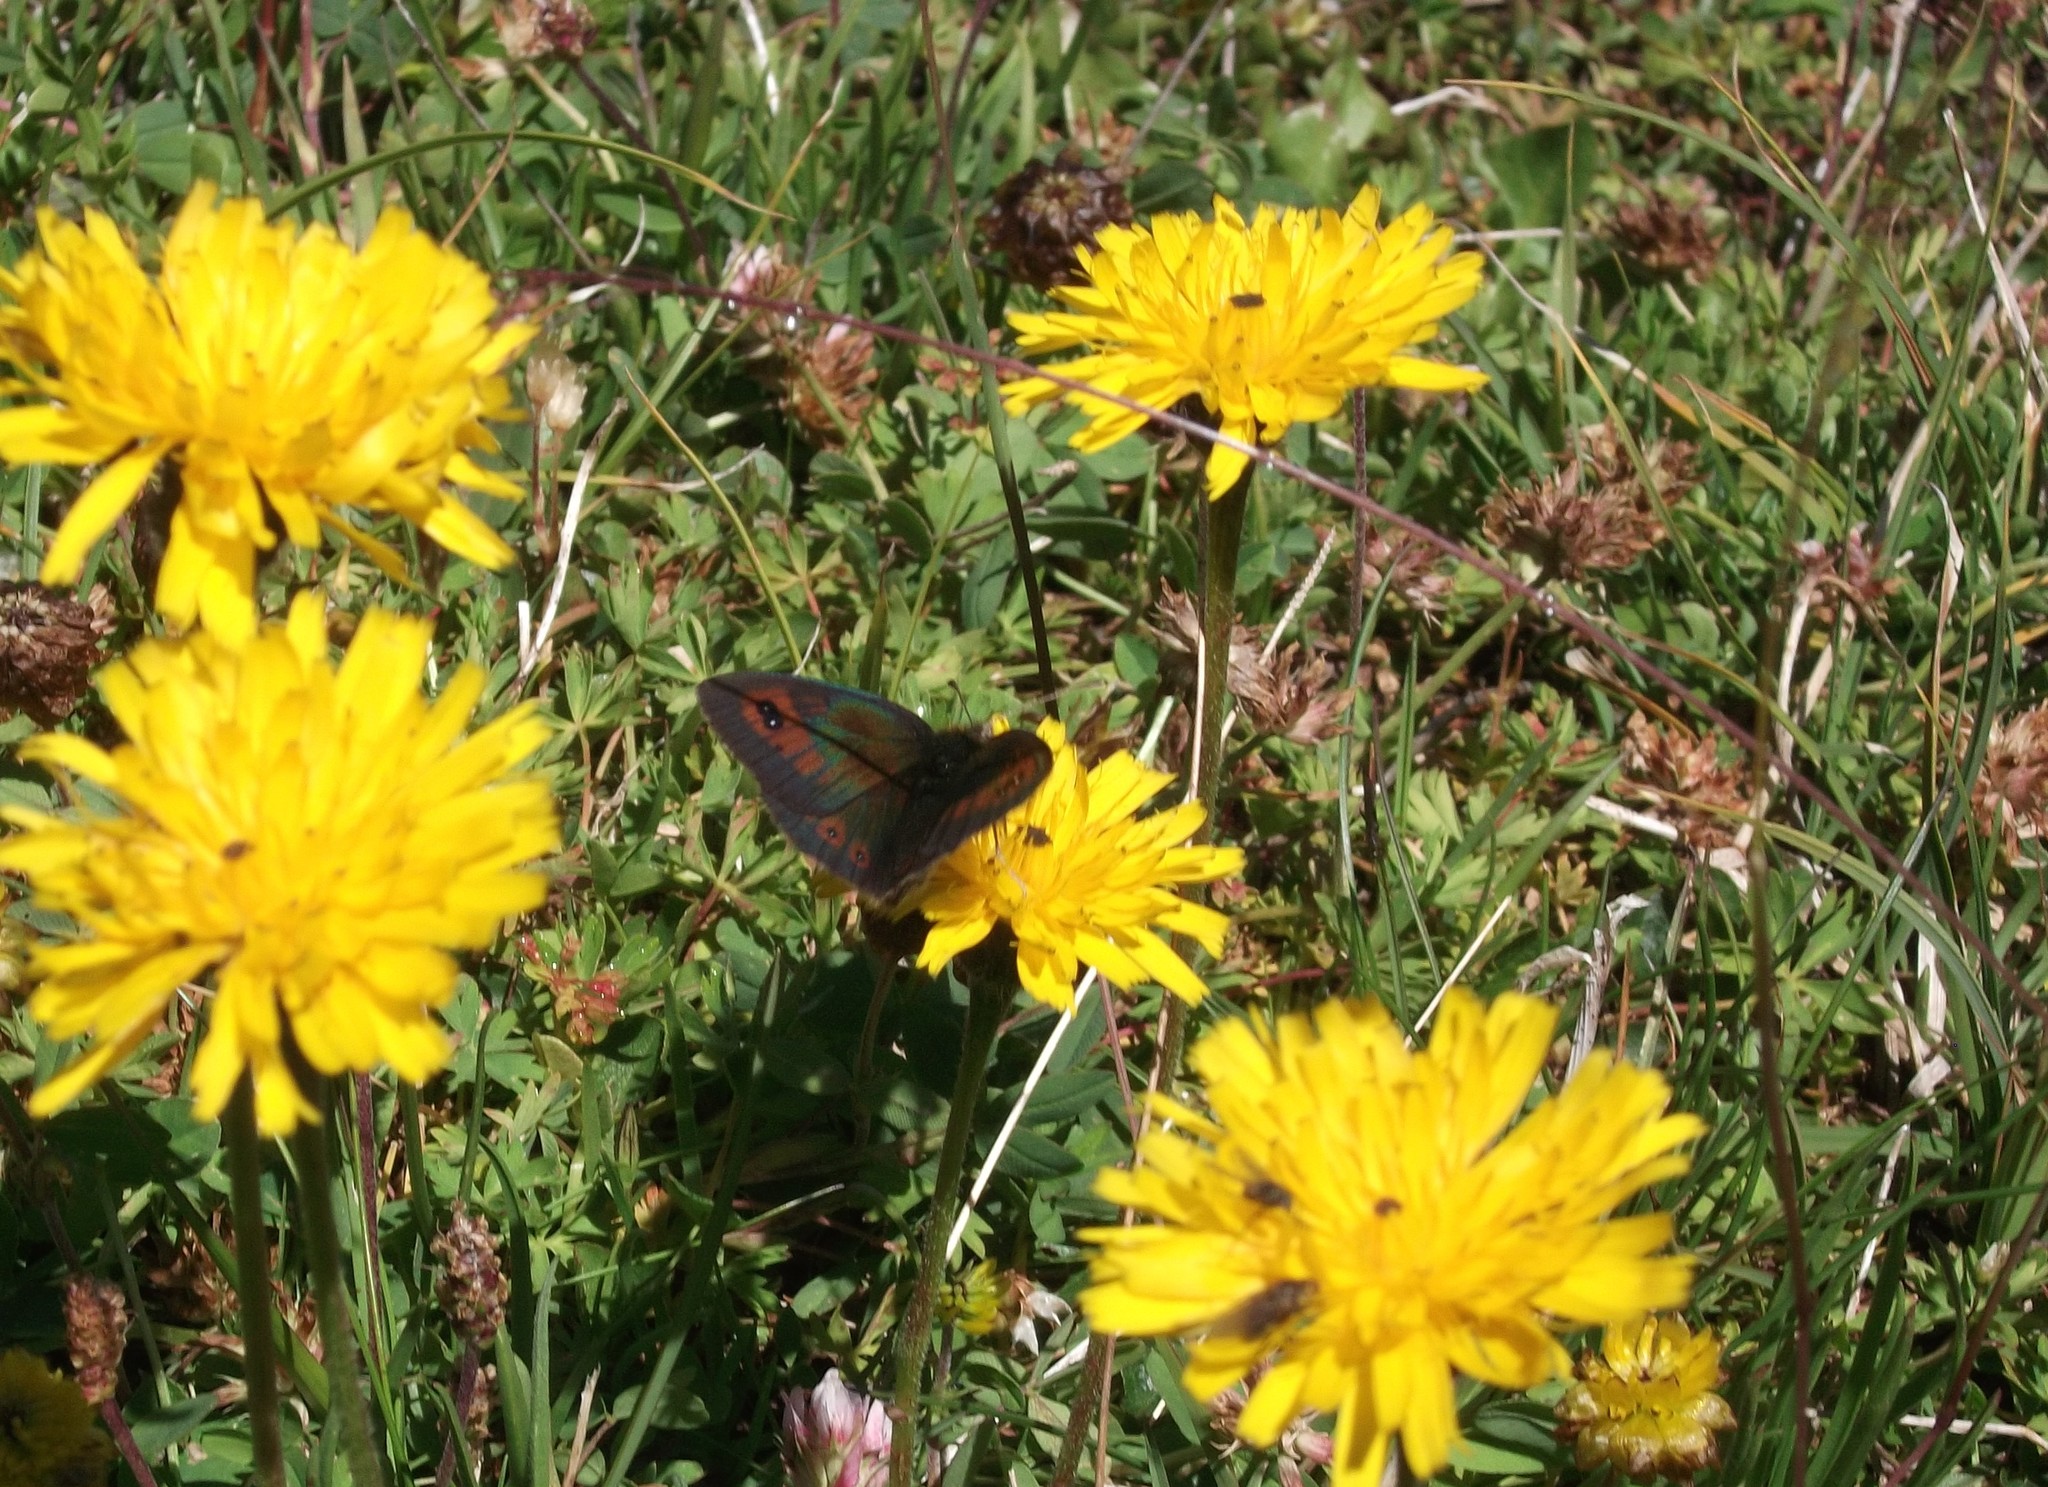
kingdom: Animalia
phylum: Arthropoda
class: Insecta
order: Lepidoptera
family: Nymphalidae
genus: Erebia
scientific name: Erebia cassioides
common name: Common brassy ringlet
